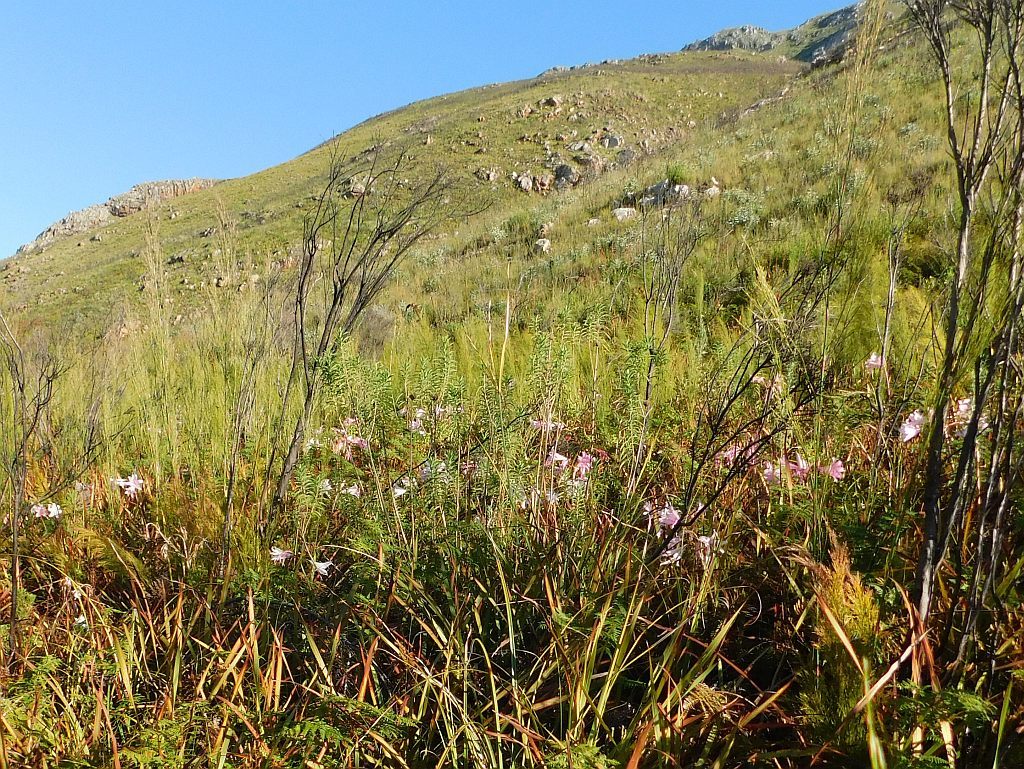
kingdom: Plantae
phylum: Tracheophyta
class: Liliopsida
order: Asparagales
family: Amaryllidaceae
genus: Amaryllis
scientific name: Amaryllis belladonna
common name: Jersey lily
